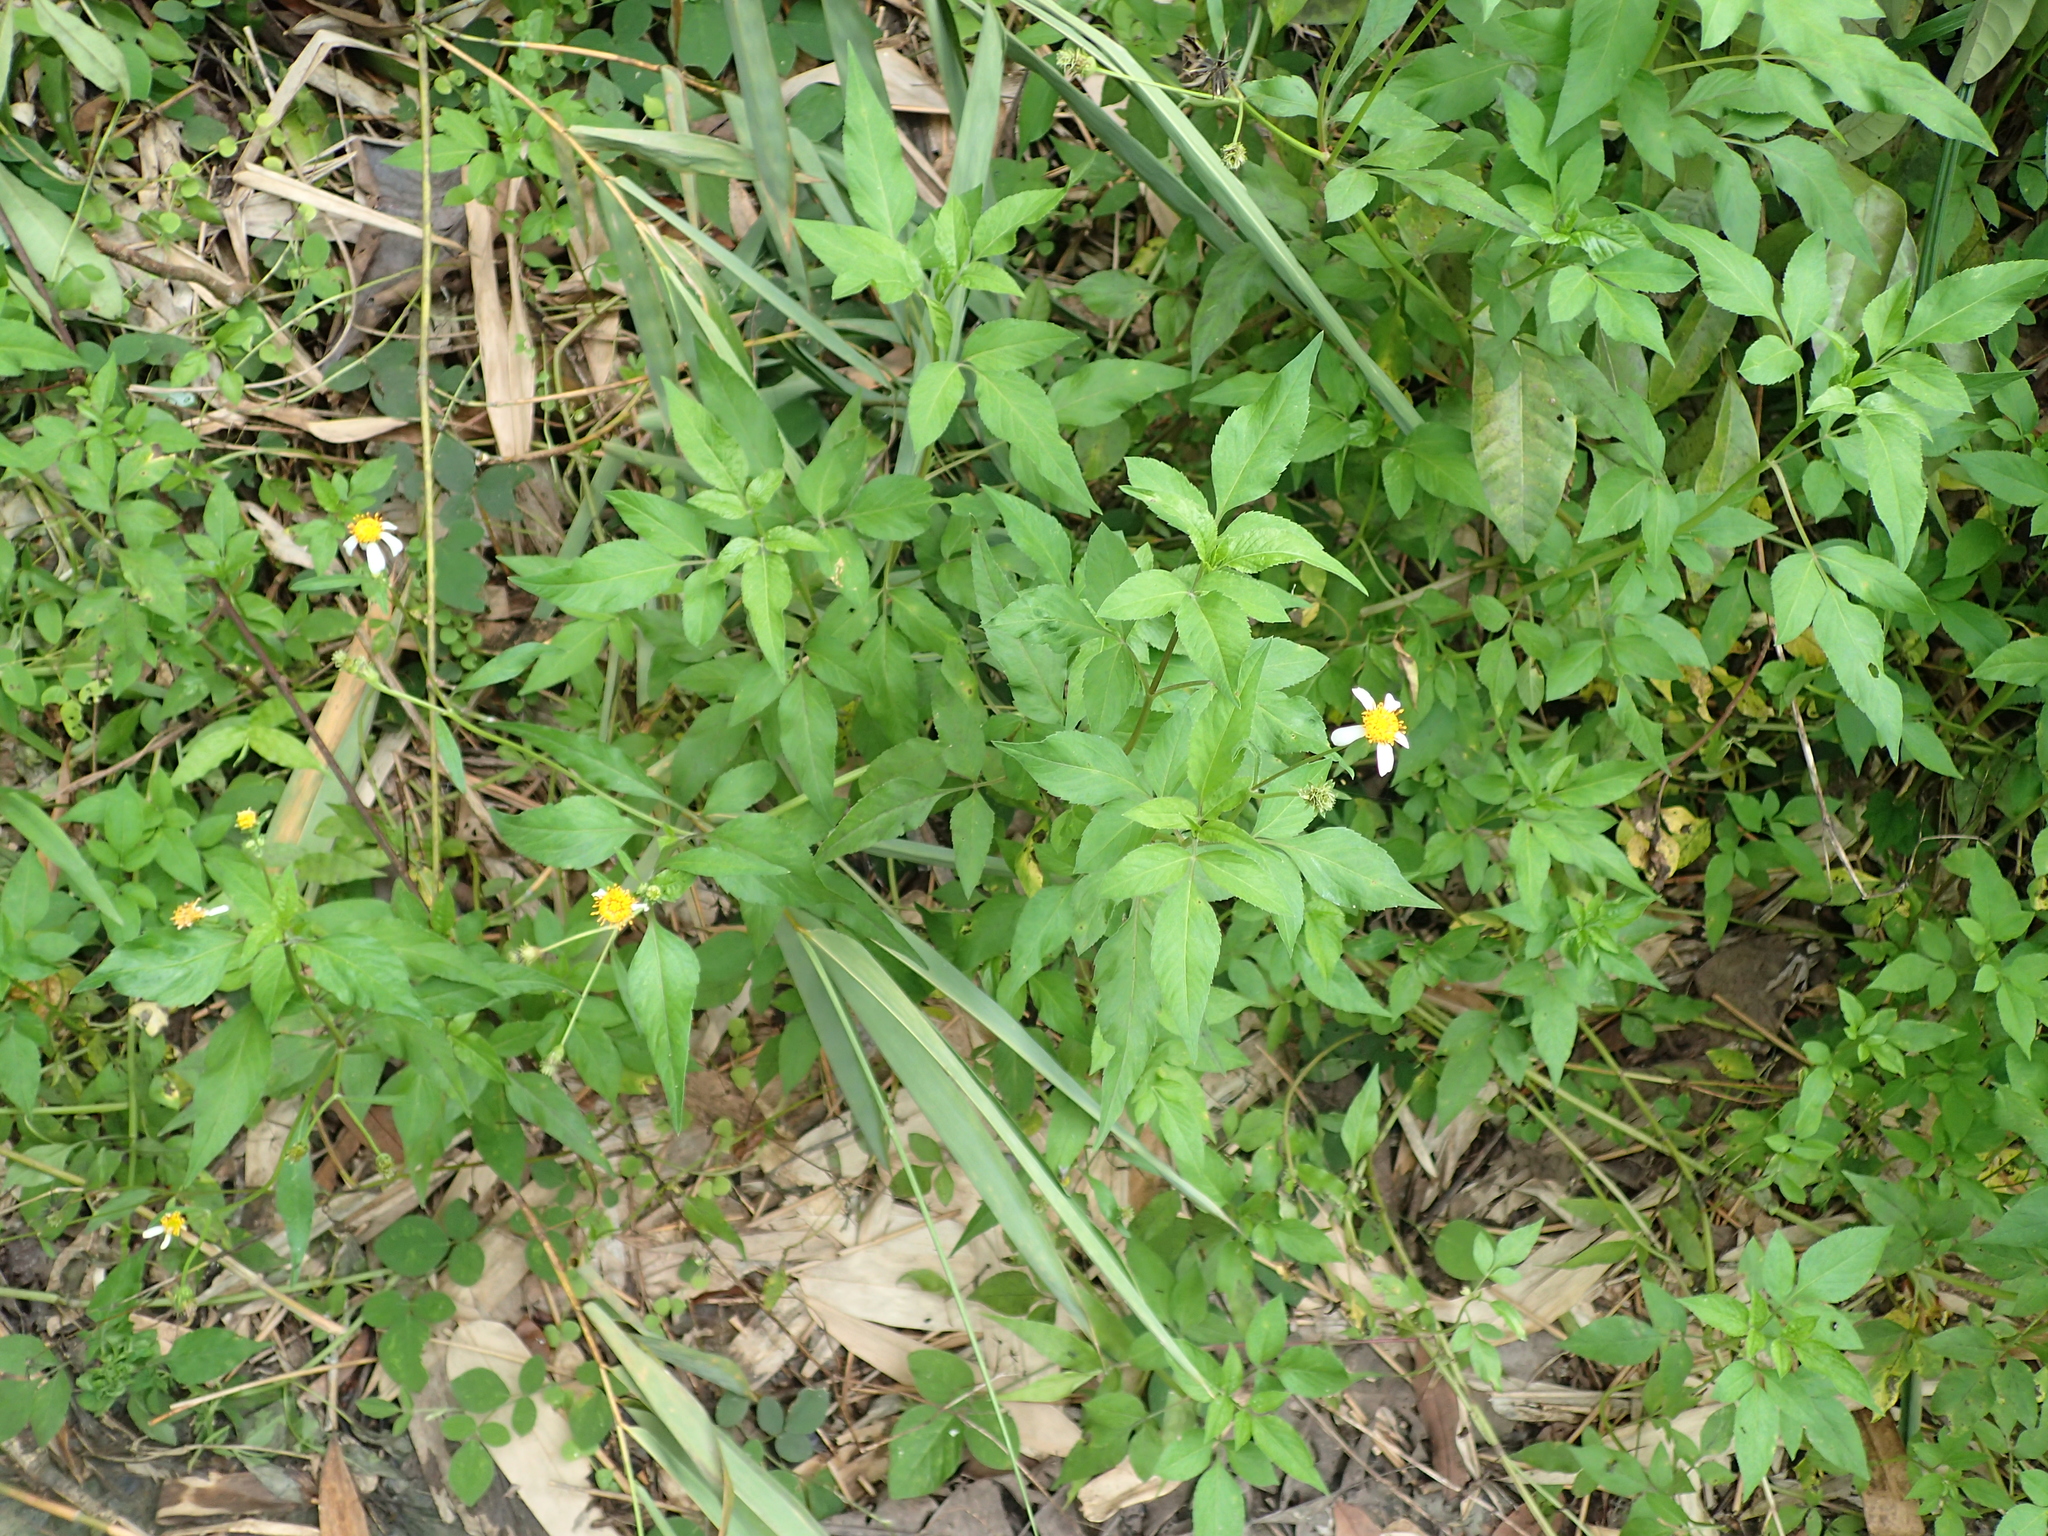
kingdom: Plantae
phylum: Tracheophyta
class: Magnoliopsida
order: Asterales
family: Asteraceae
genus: Bidens
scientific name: Bidens alba
